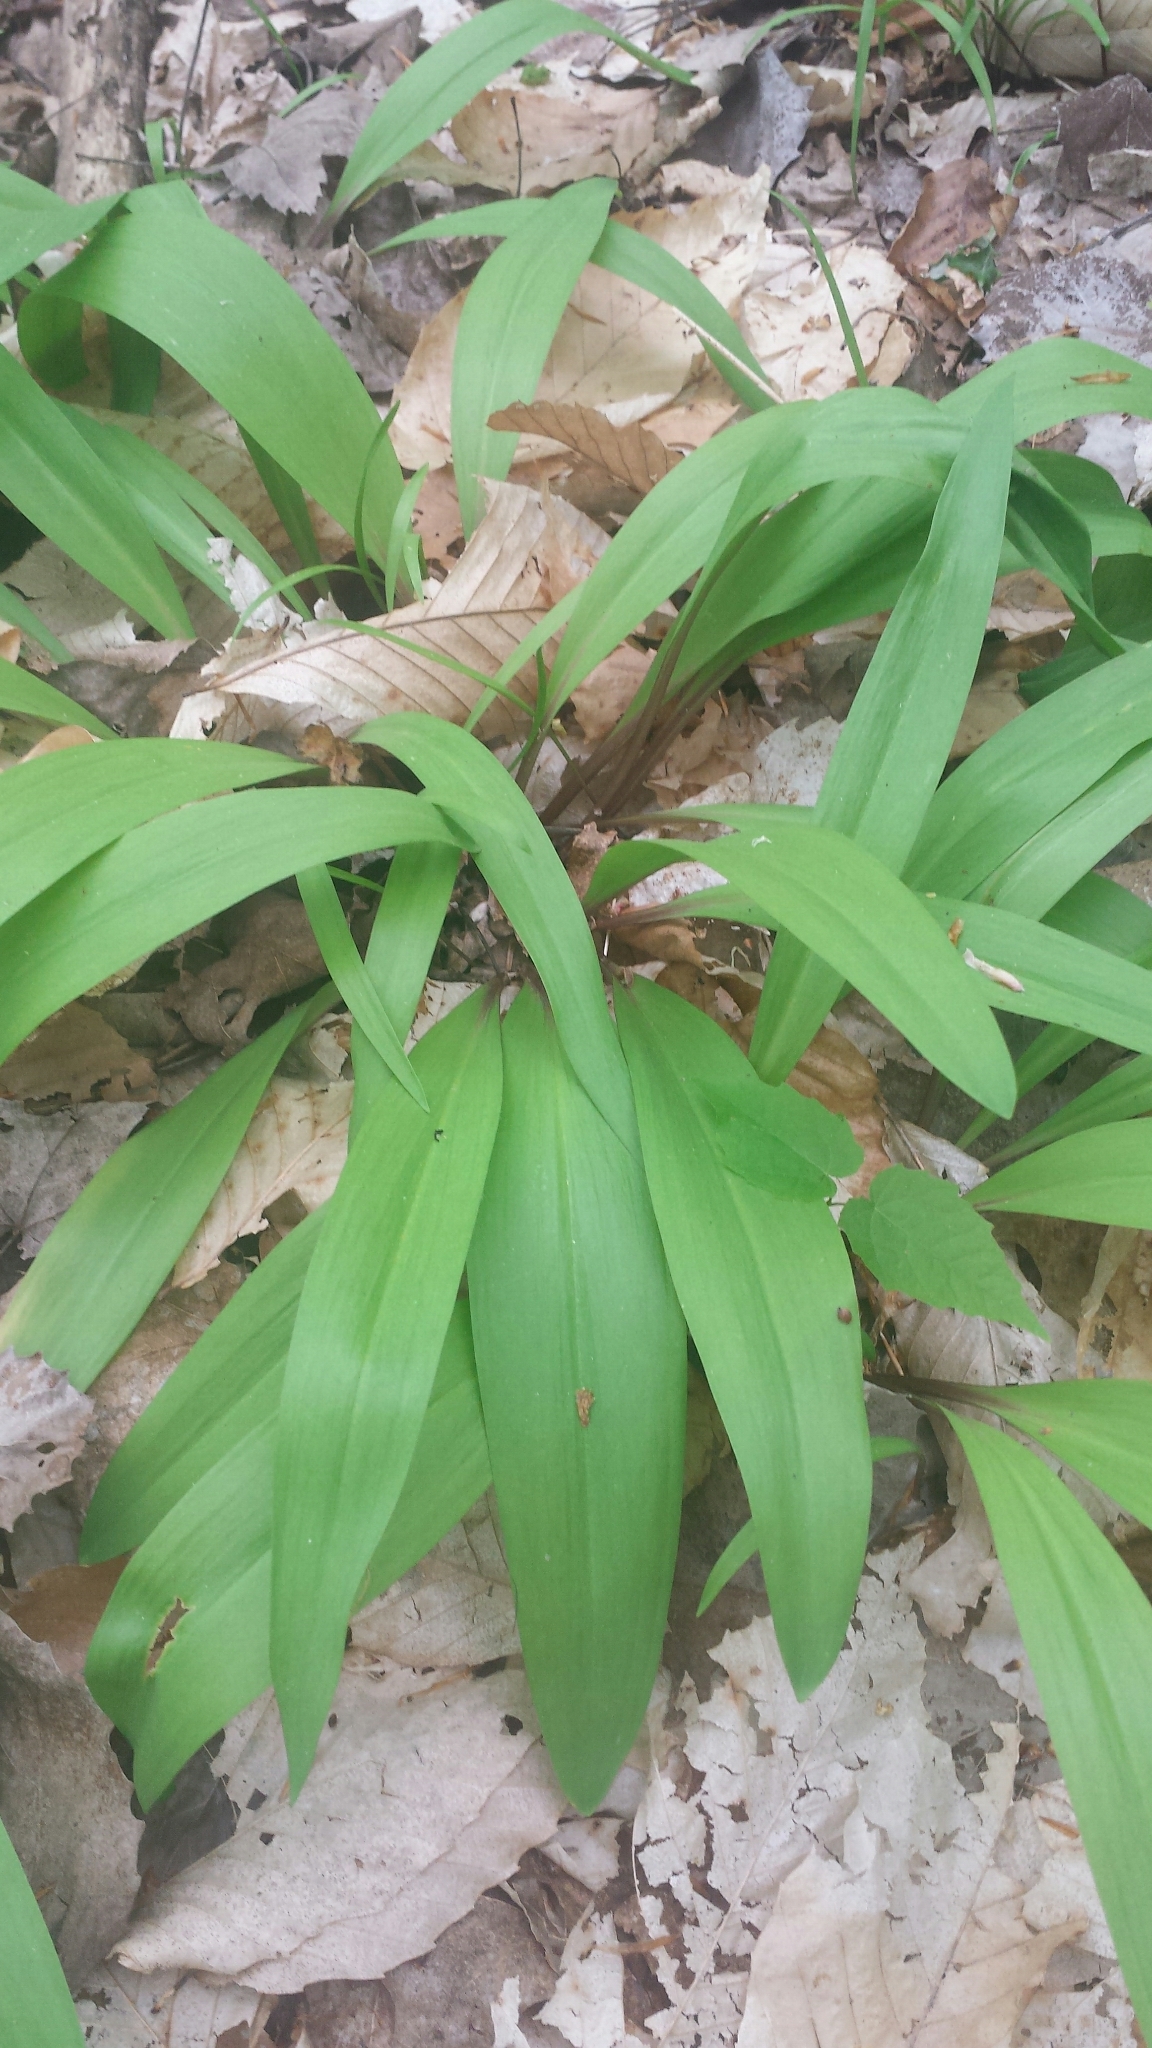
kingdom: Plantae
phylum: Tracheophyta
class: Liliopsida
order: Asparagales
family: Amaryllidaceae
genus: Allium
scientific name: Allium tricoccum
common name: Ramp
